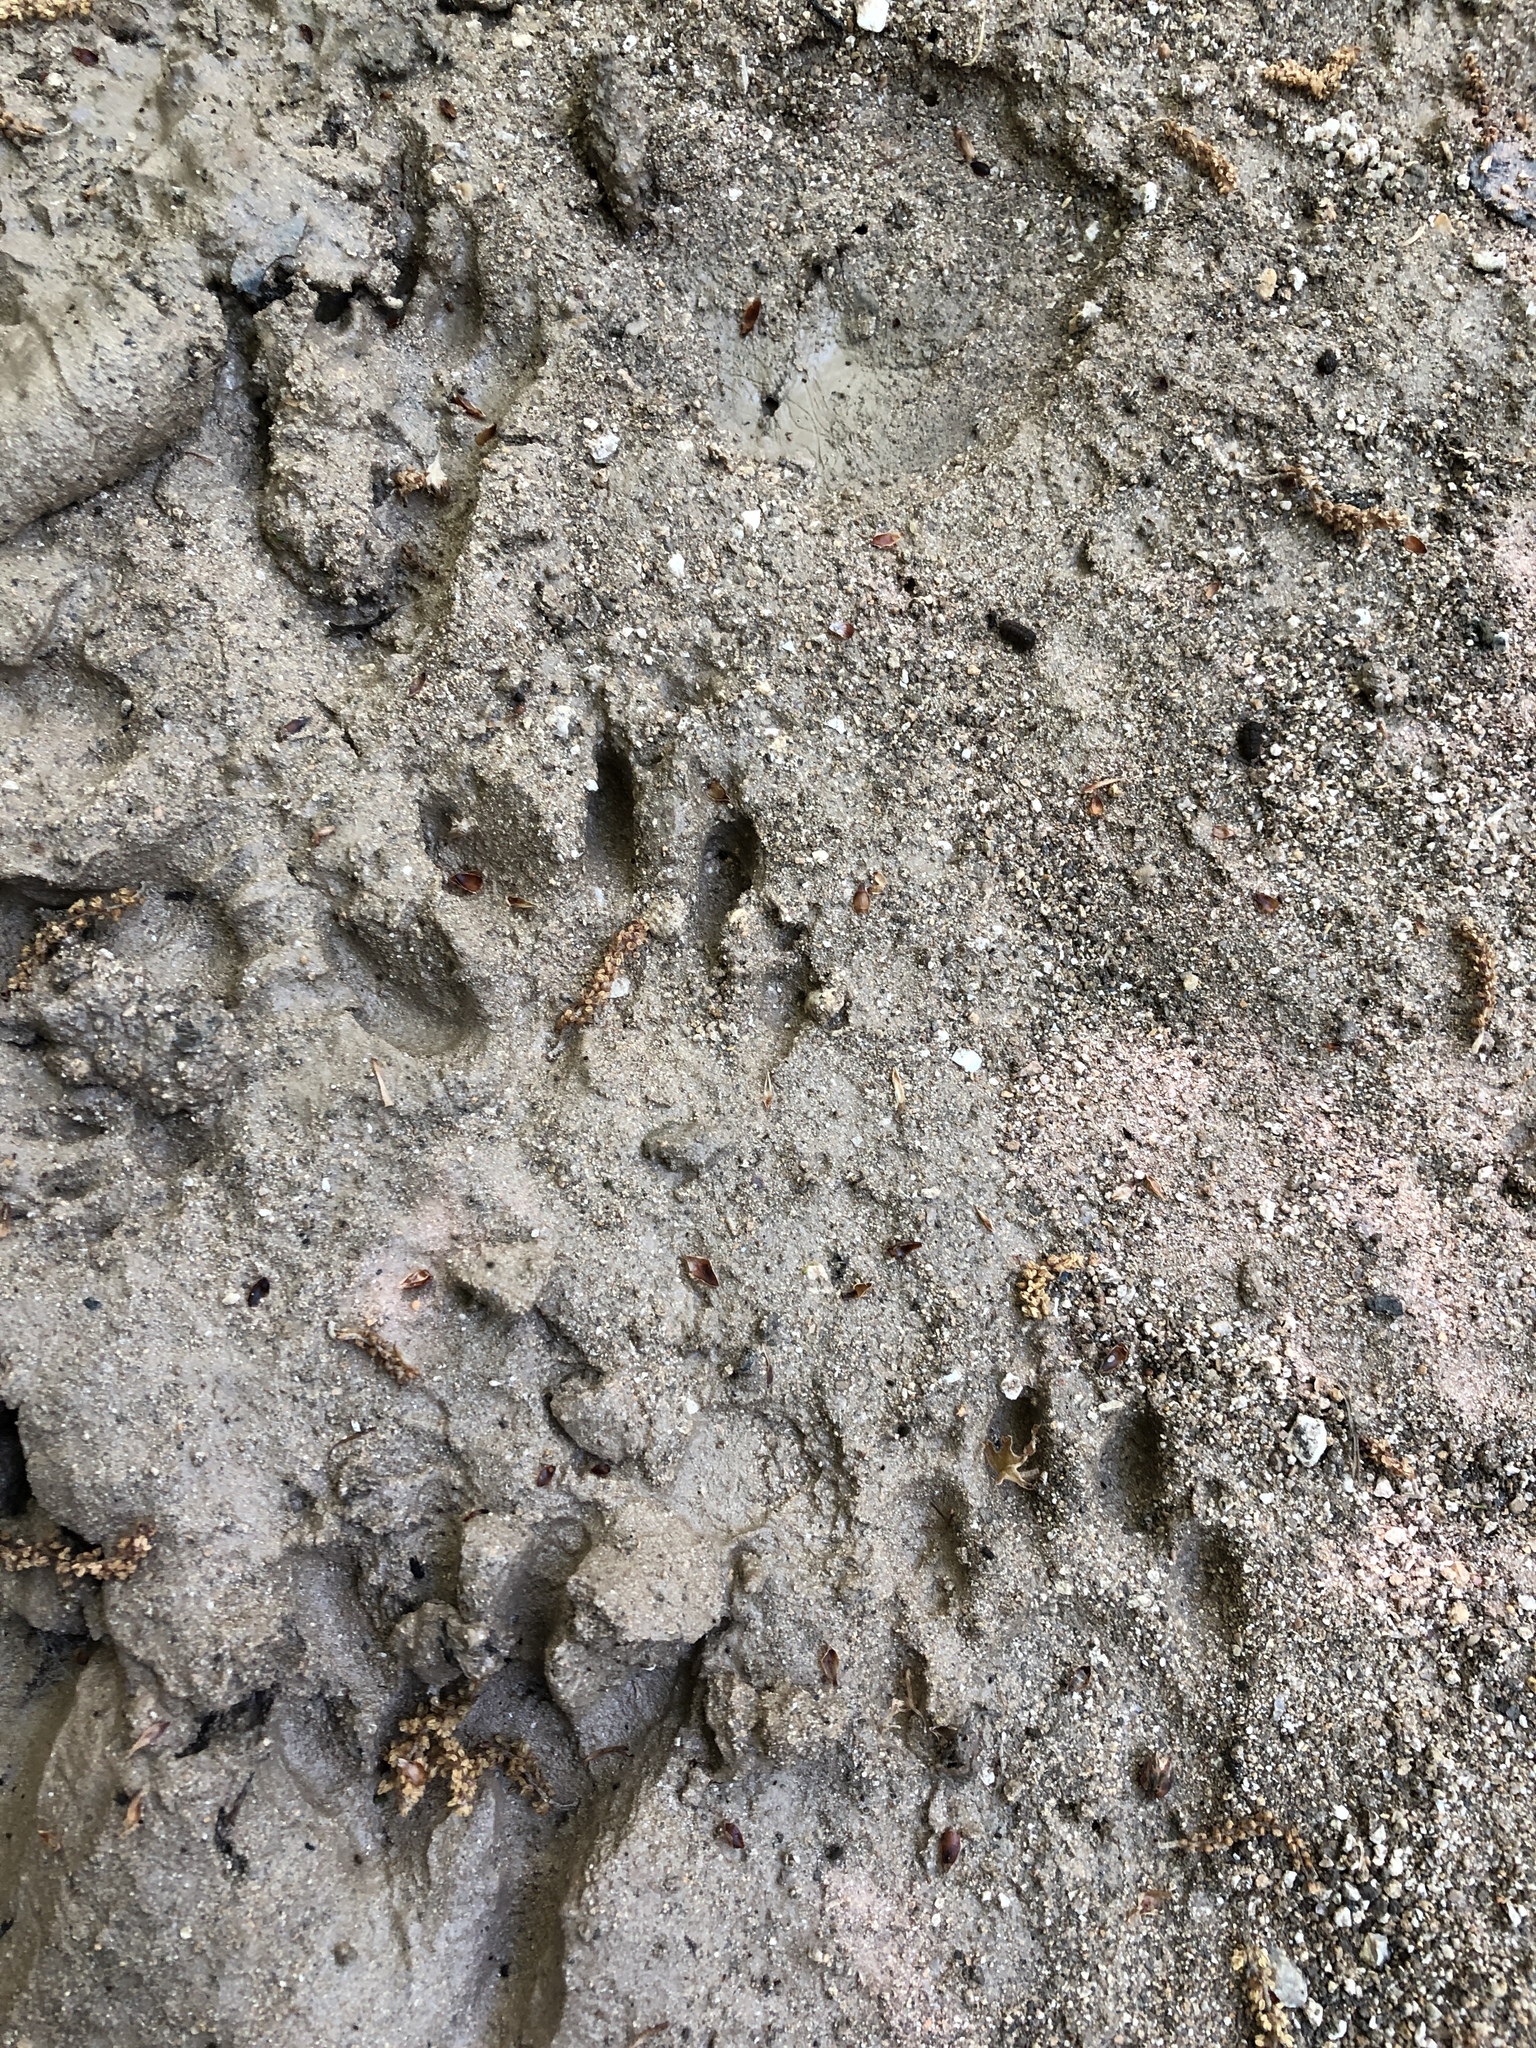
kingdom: Animalia
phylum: Chordata
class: Mammalia
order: Carnivora
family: Procyonidae
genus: Procyon
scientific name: Procyon lotor
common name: Raccoon
